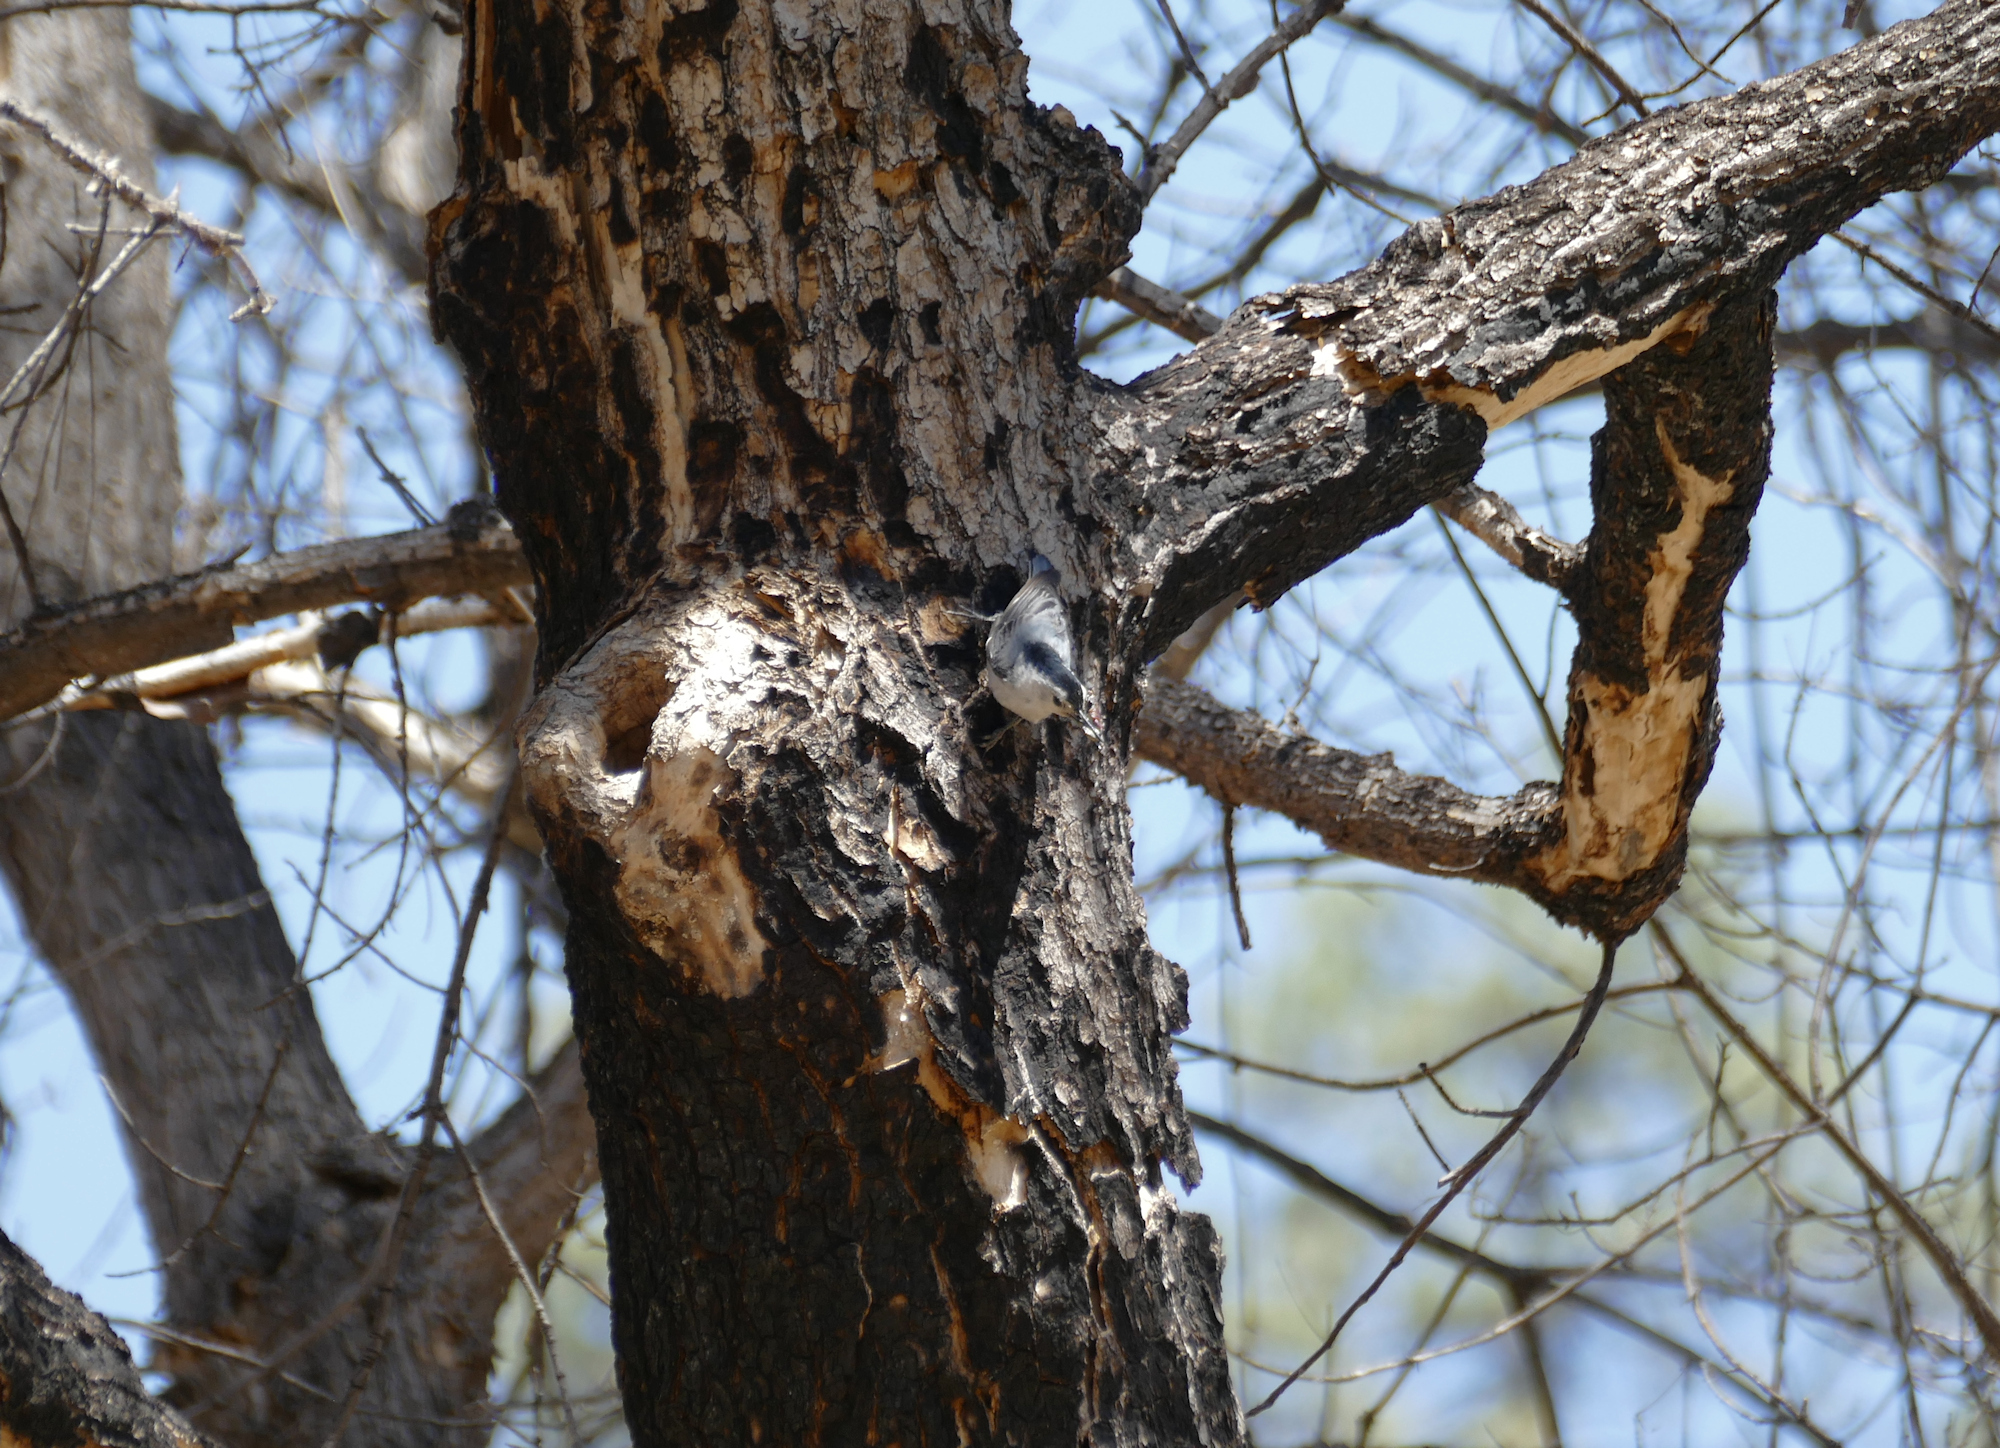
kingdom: Animalia
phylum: Chordata
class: Aves
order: Passeriformes
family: Sittidae
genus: Sitta
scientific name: Sitta carolinensis
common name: White-breasted nuthatch
